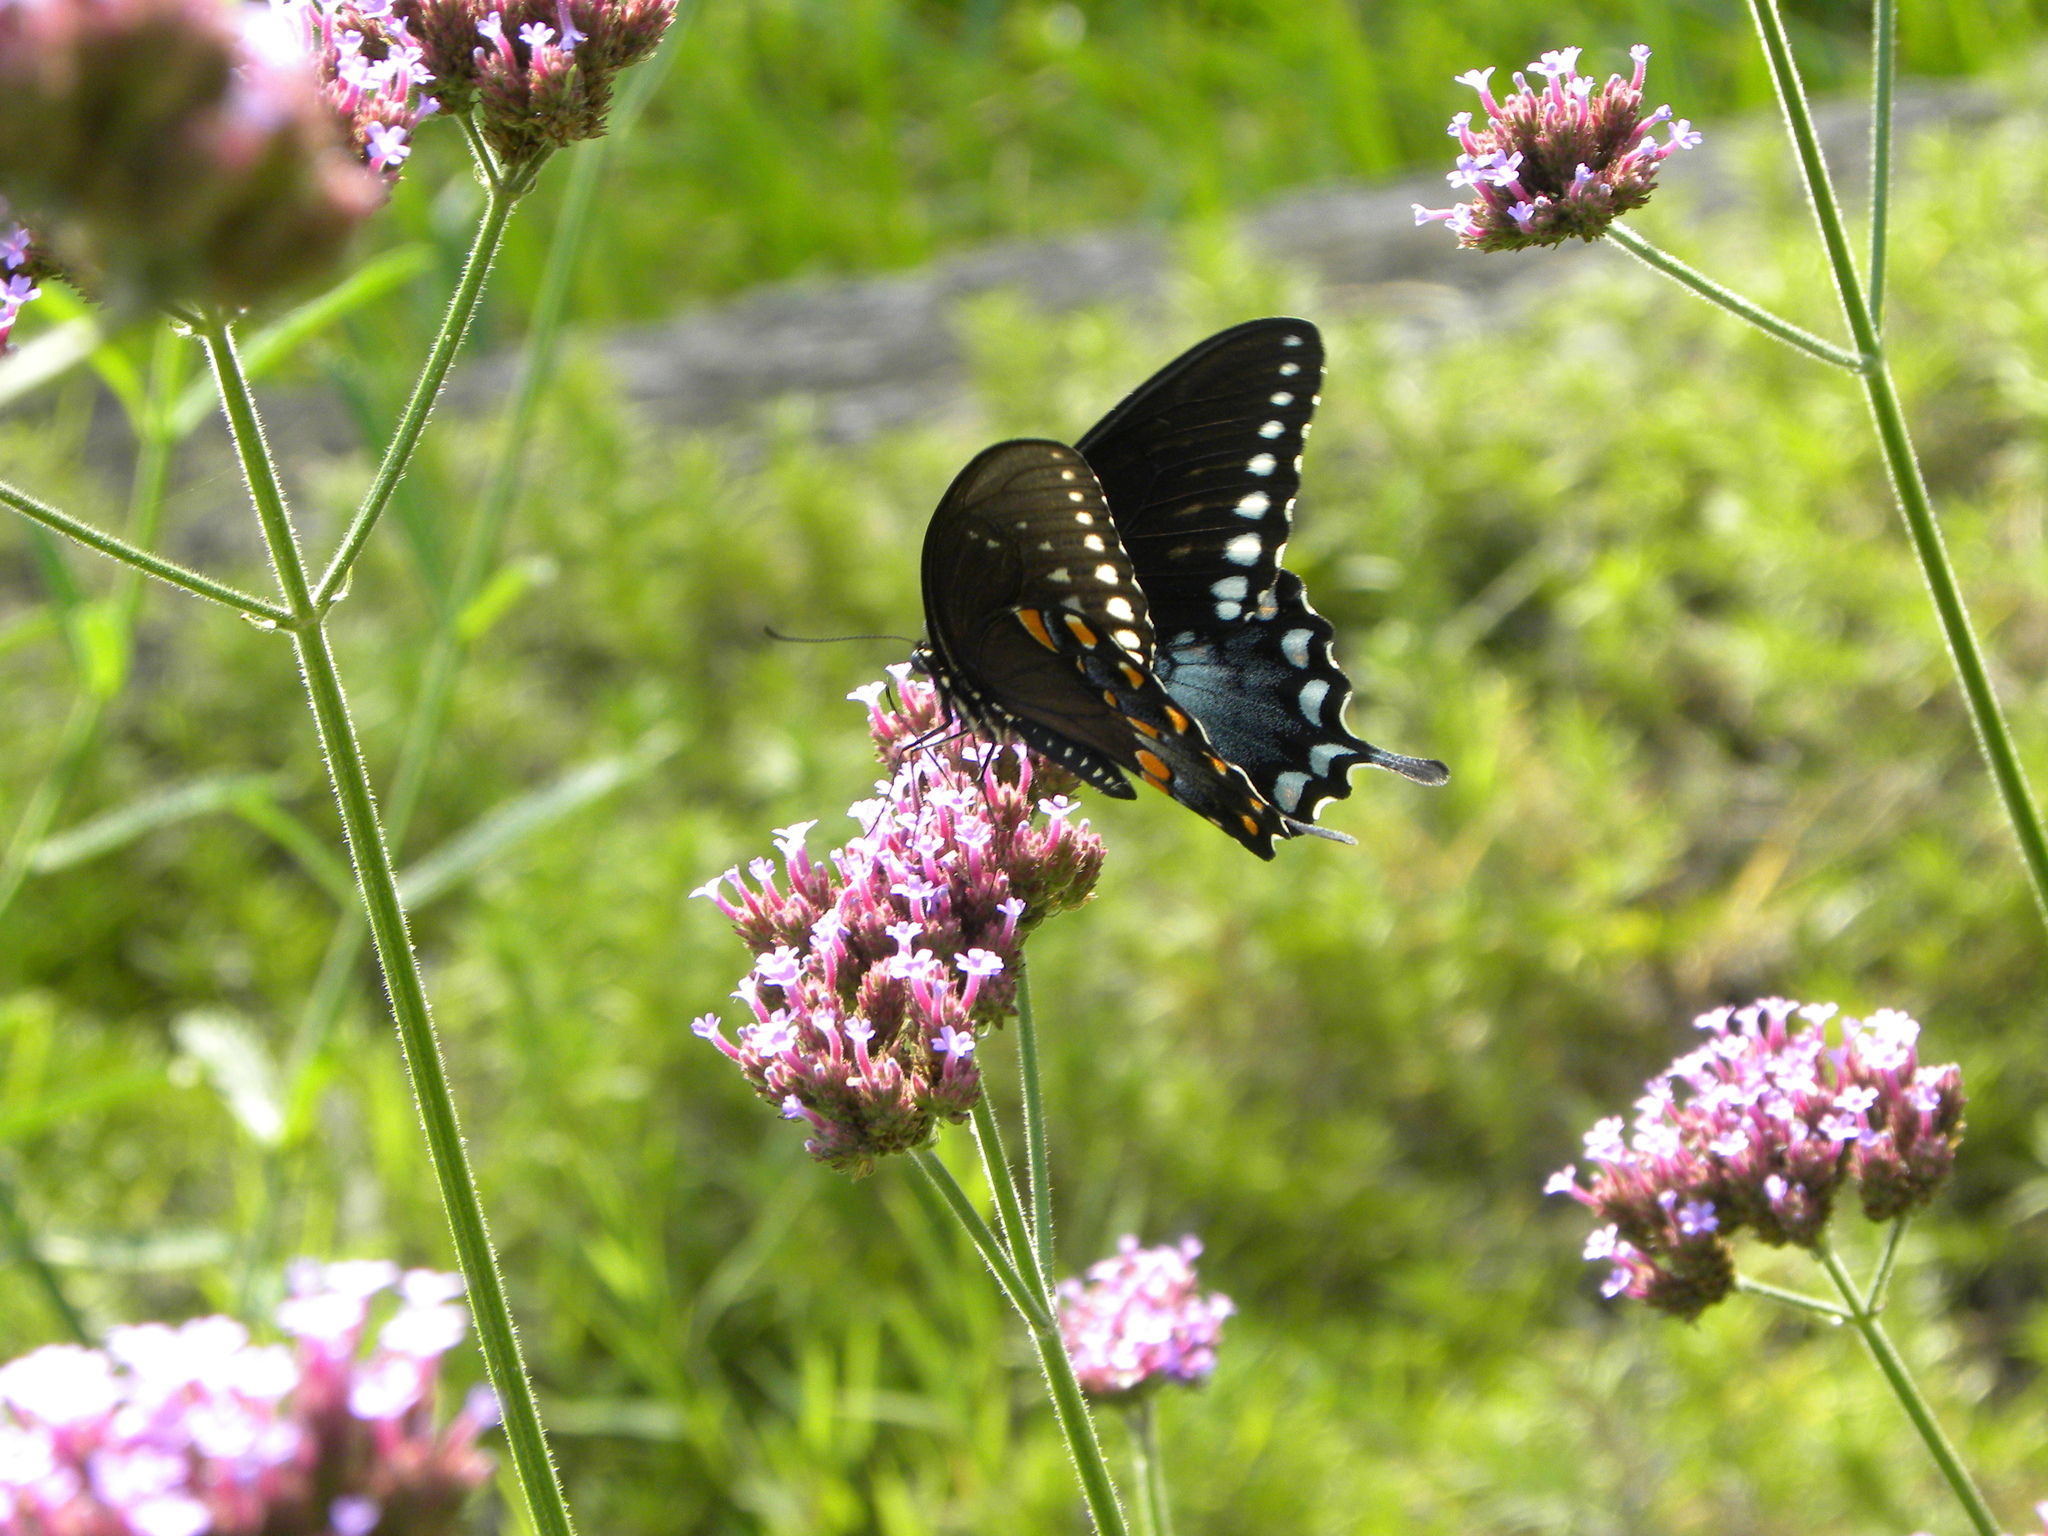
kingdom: Animalia
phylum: Arthropoda
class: Insecta
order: Lepidoptera
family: Papilionidae
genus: Papilio
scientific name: Papilio troilus
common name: Spicebush swallowtail
